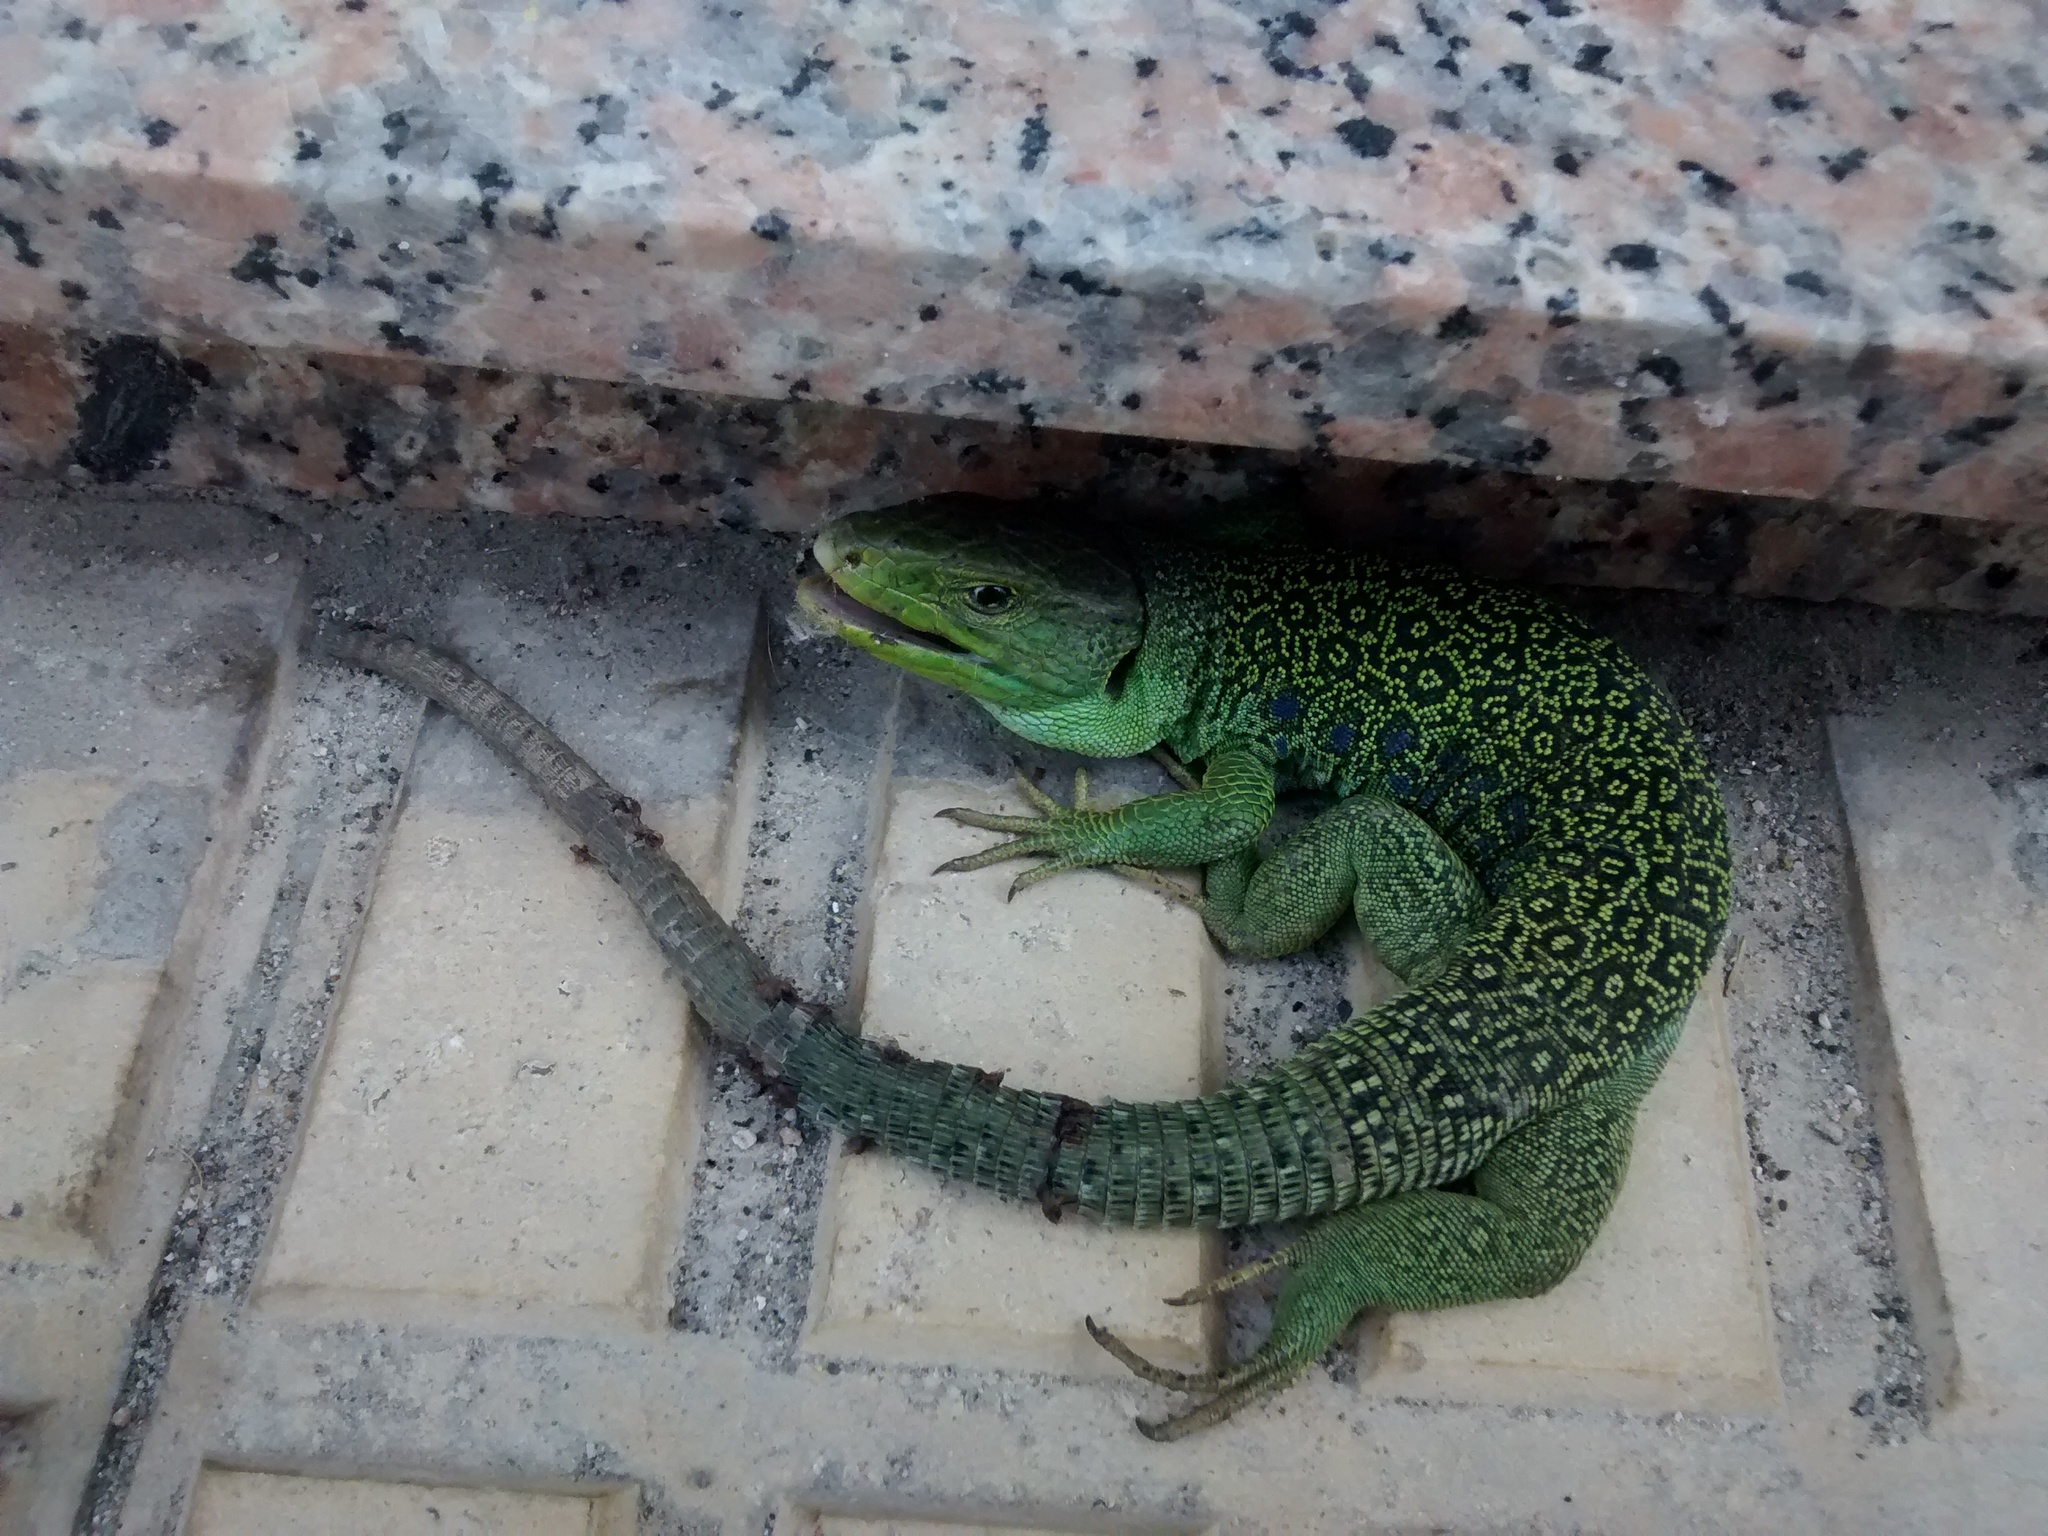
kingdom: Animalia
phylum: Chordata
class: Squamata
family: Lacertidae
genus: Timon
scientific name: Timon lepidus
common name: Ocellated lizard
